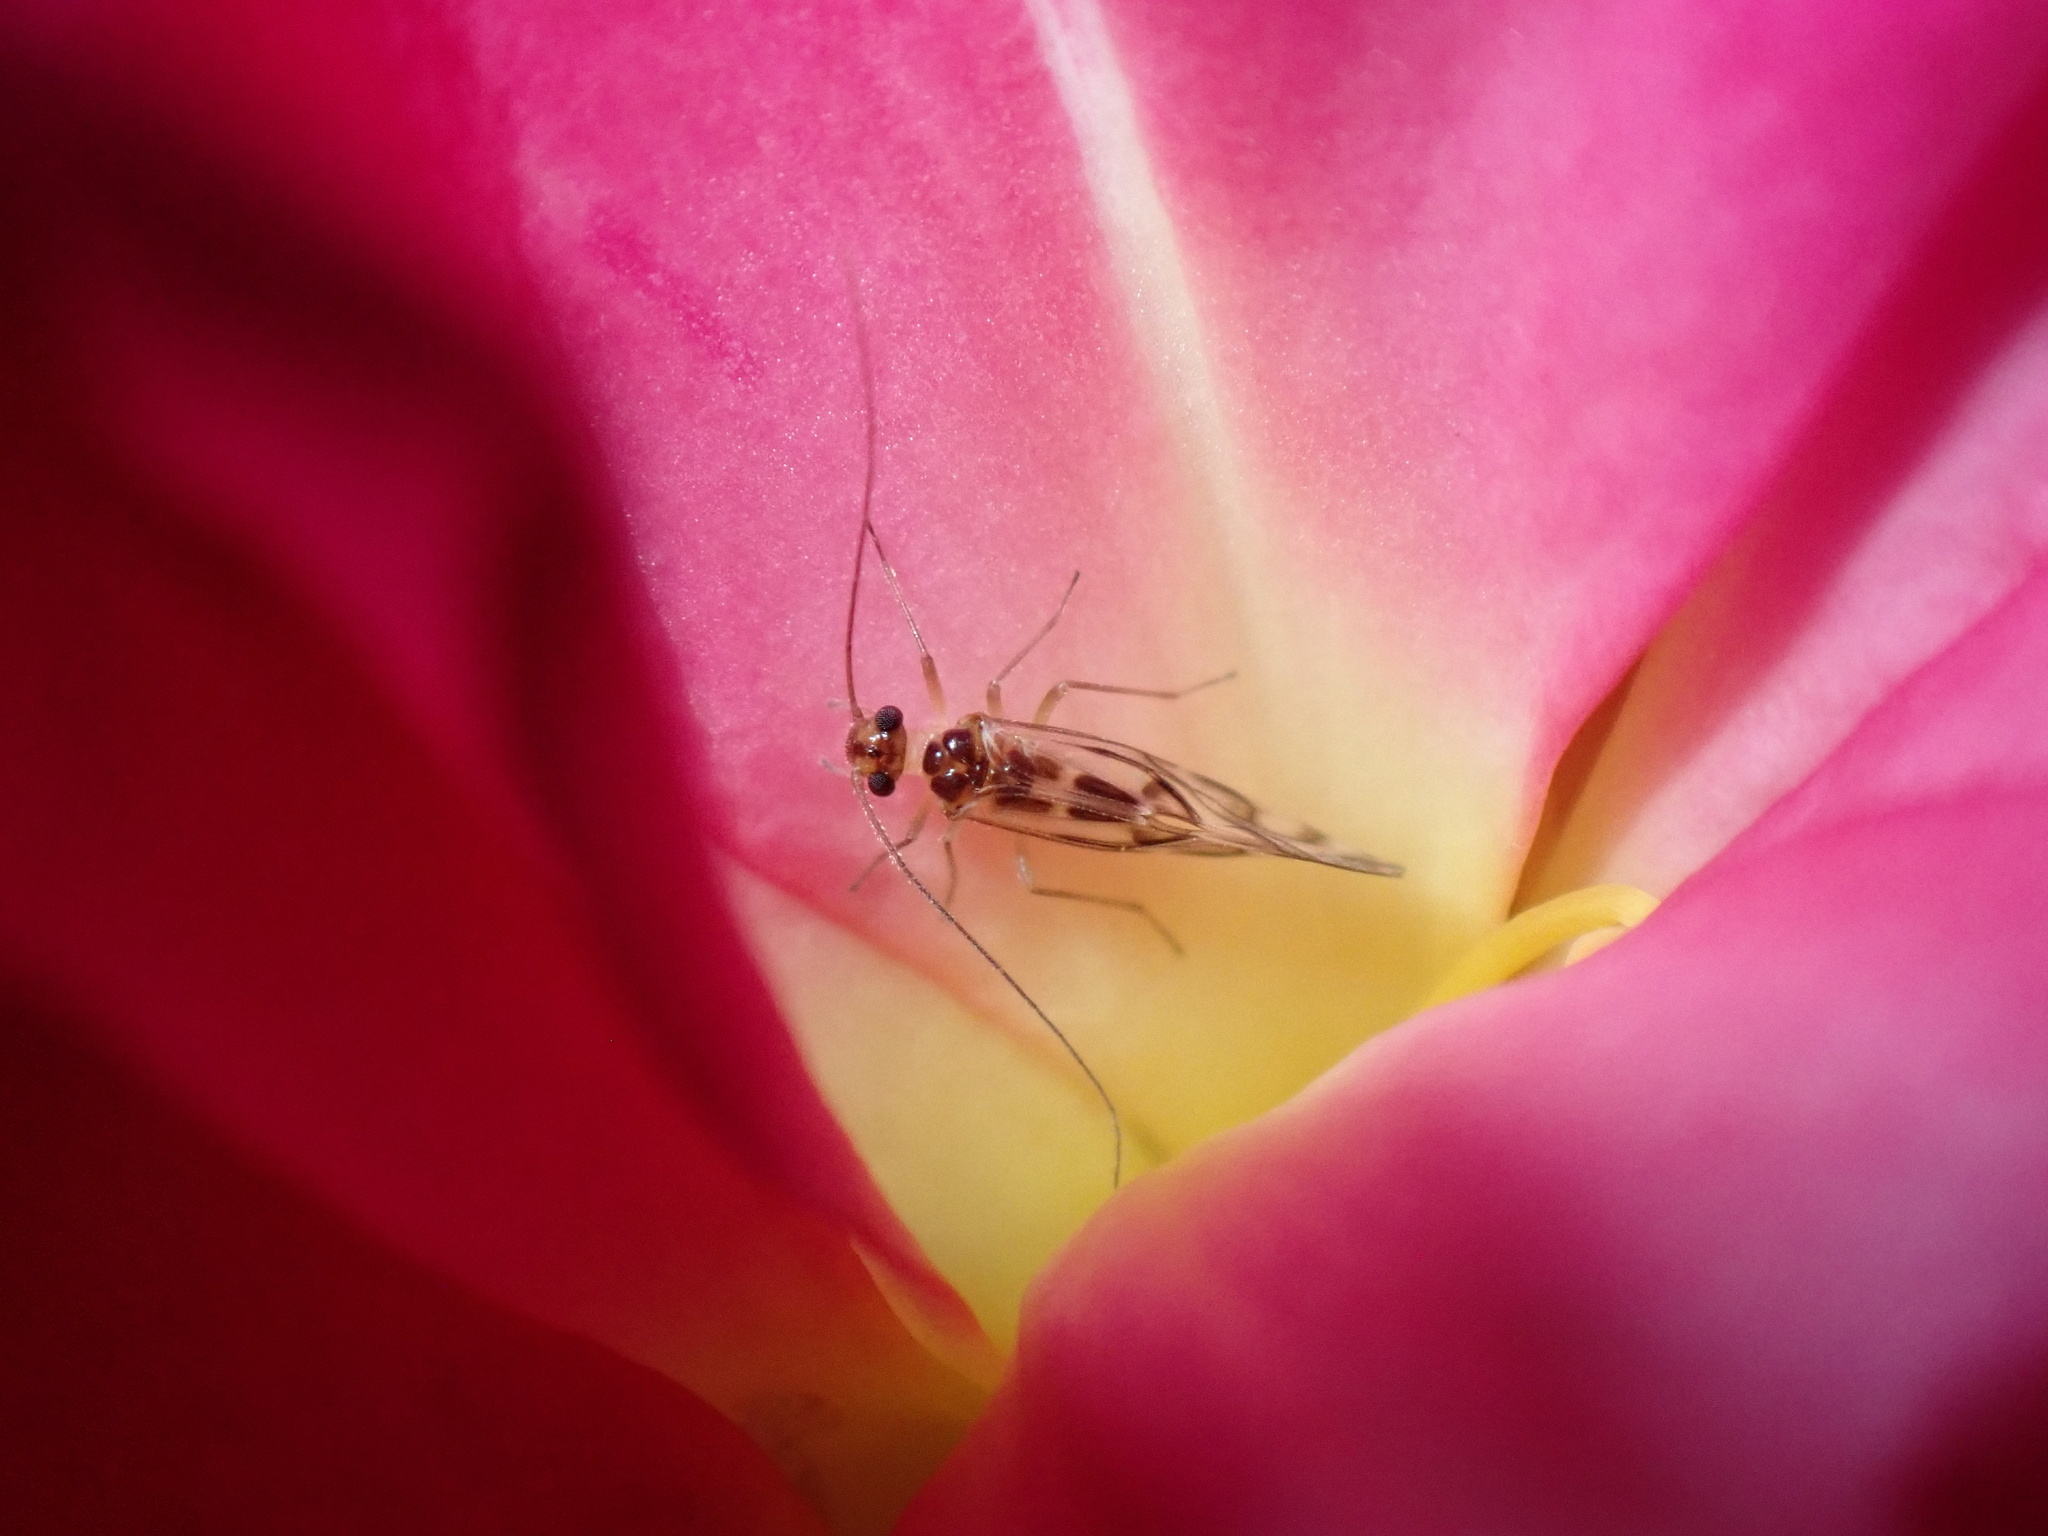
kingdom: Animalia
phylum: Arthropoda
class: Insecta
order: Psocodea
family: Stenopsocidae
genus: Graphopsocus
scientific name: Graphopsocus cruciatus
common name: Lizard bark louse
